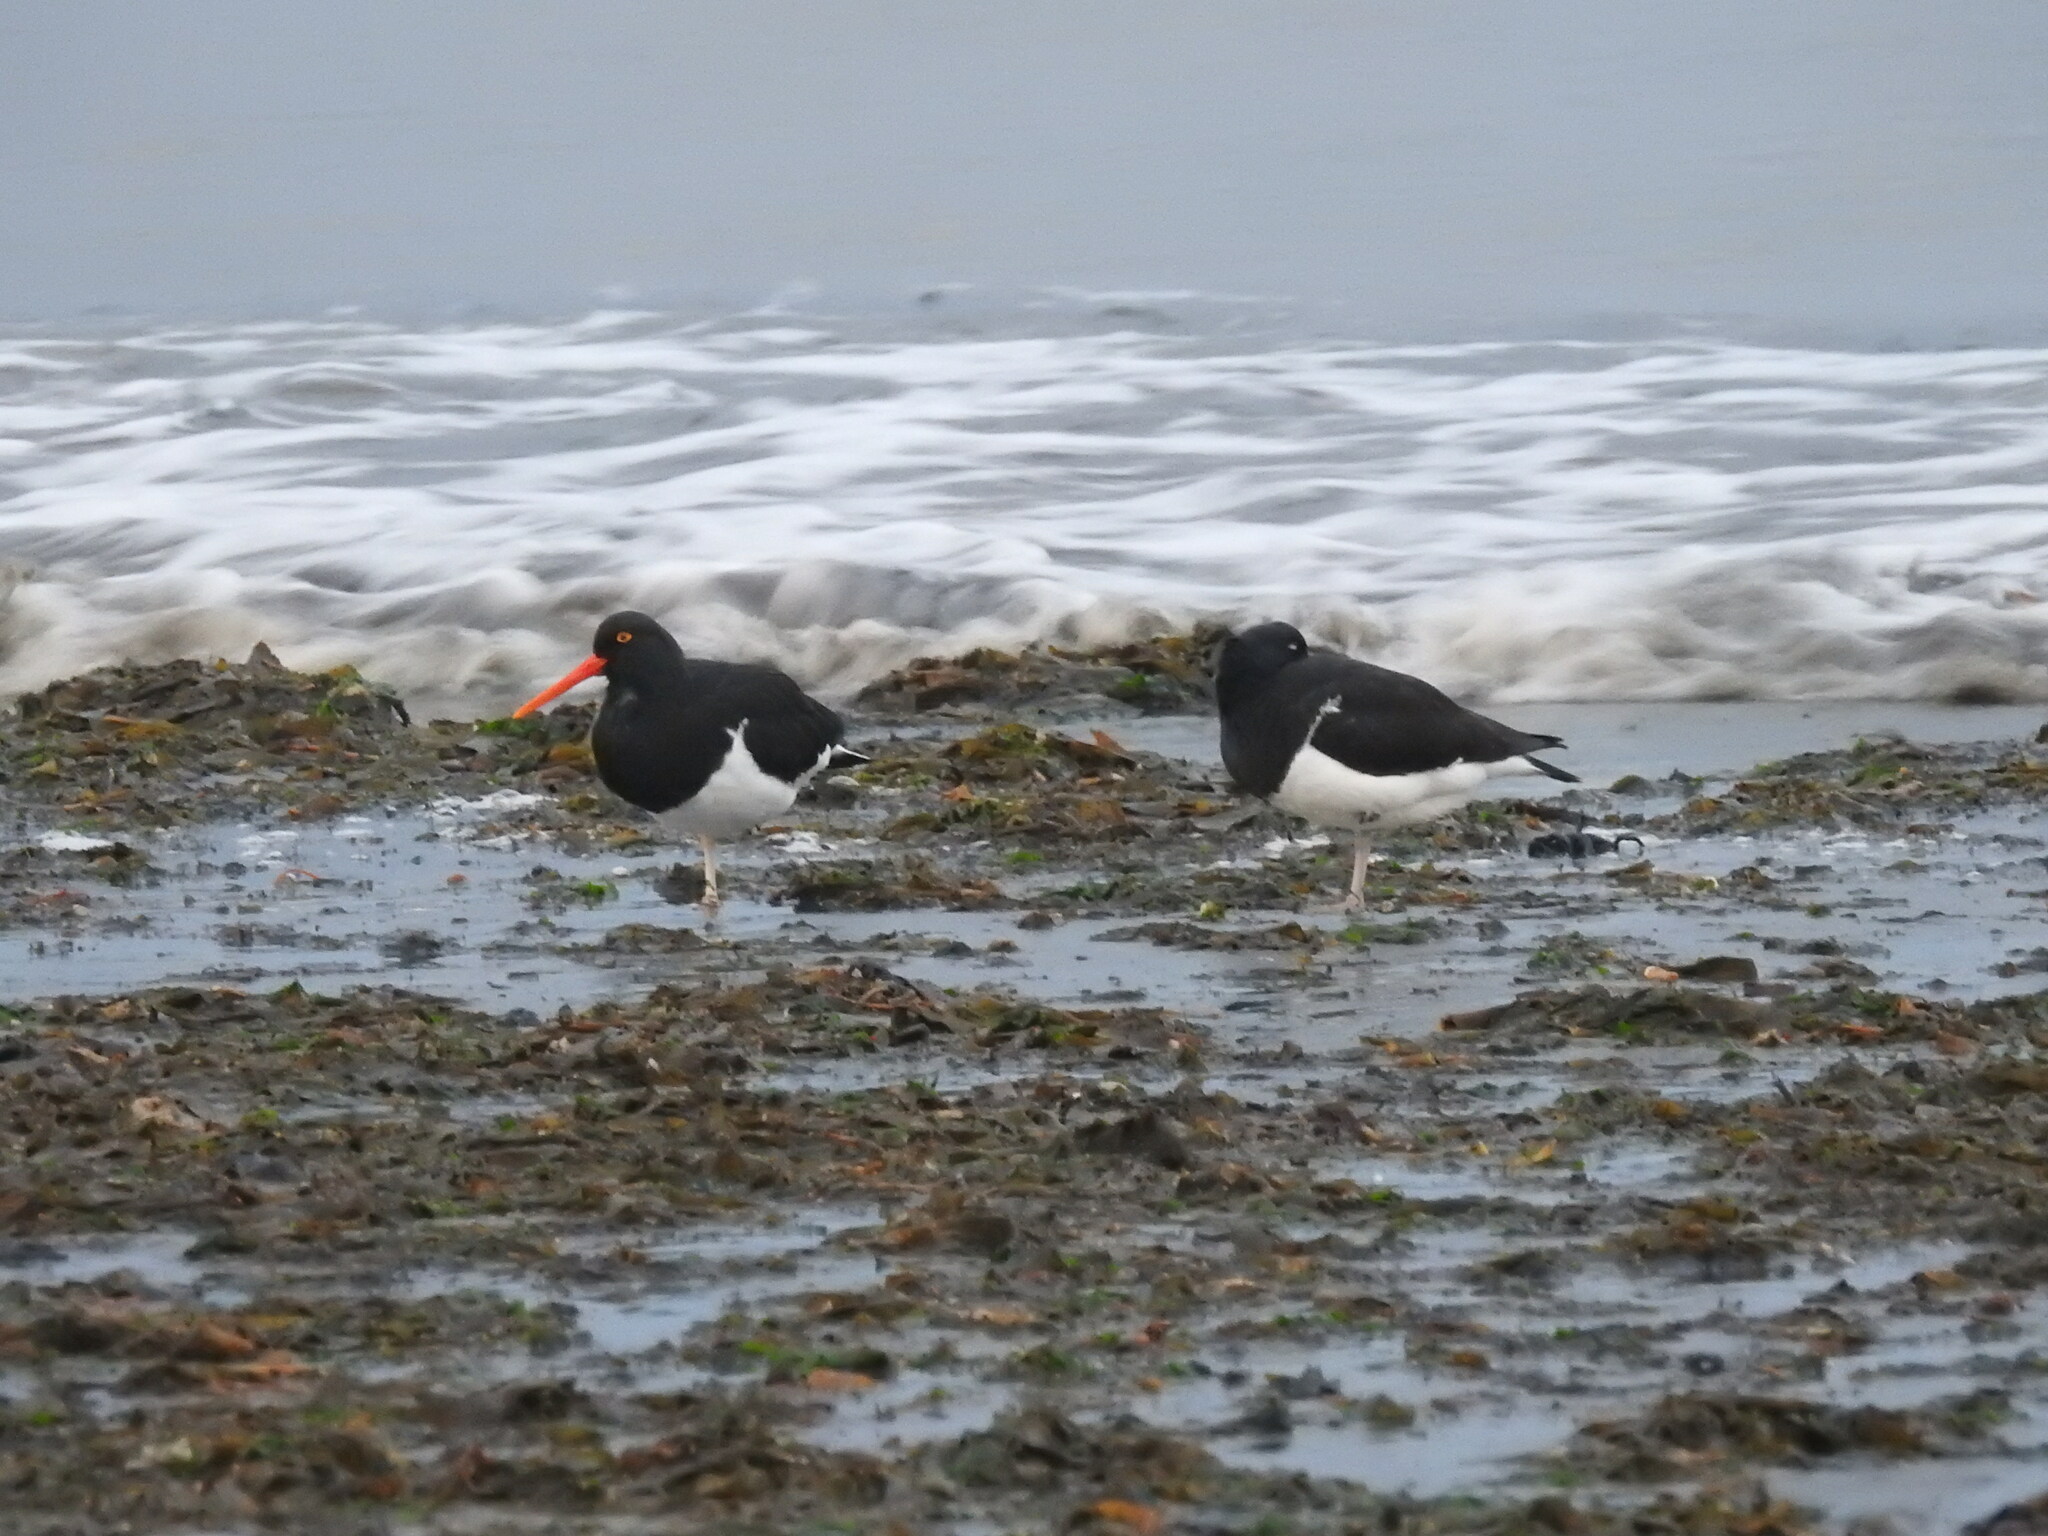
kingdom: Animalia
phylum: Chordata
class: Aves
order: Charadriiformes
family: Haematopodidae
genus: Haematopus
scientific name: Haematopus leucopodus
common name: Magellanic oystercatcher
